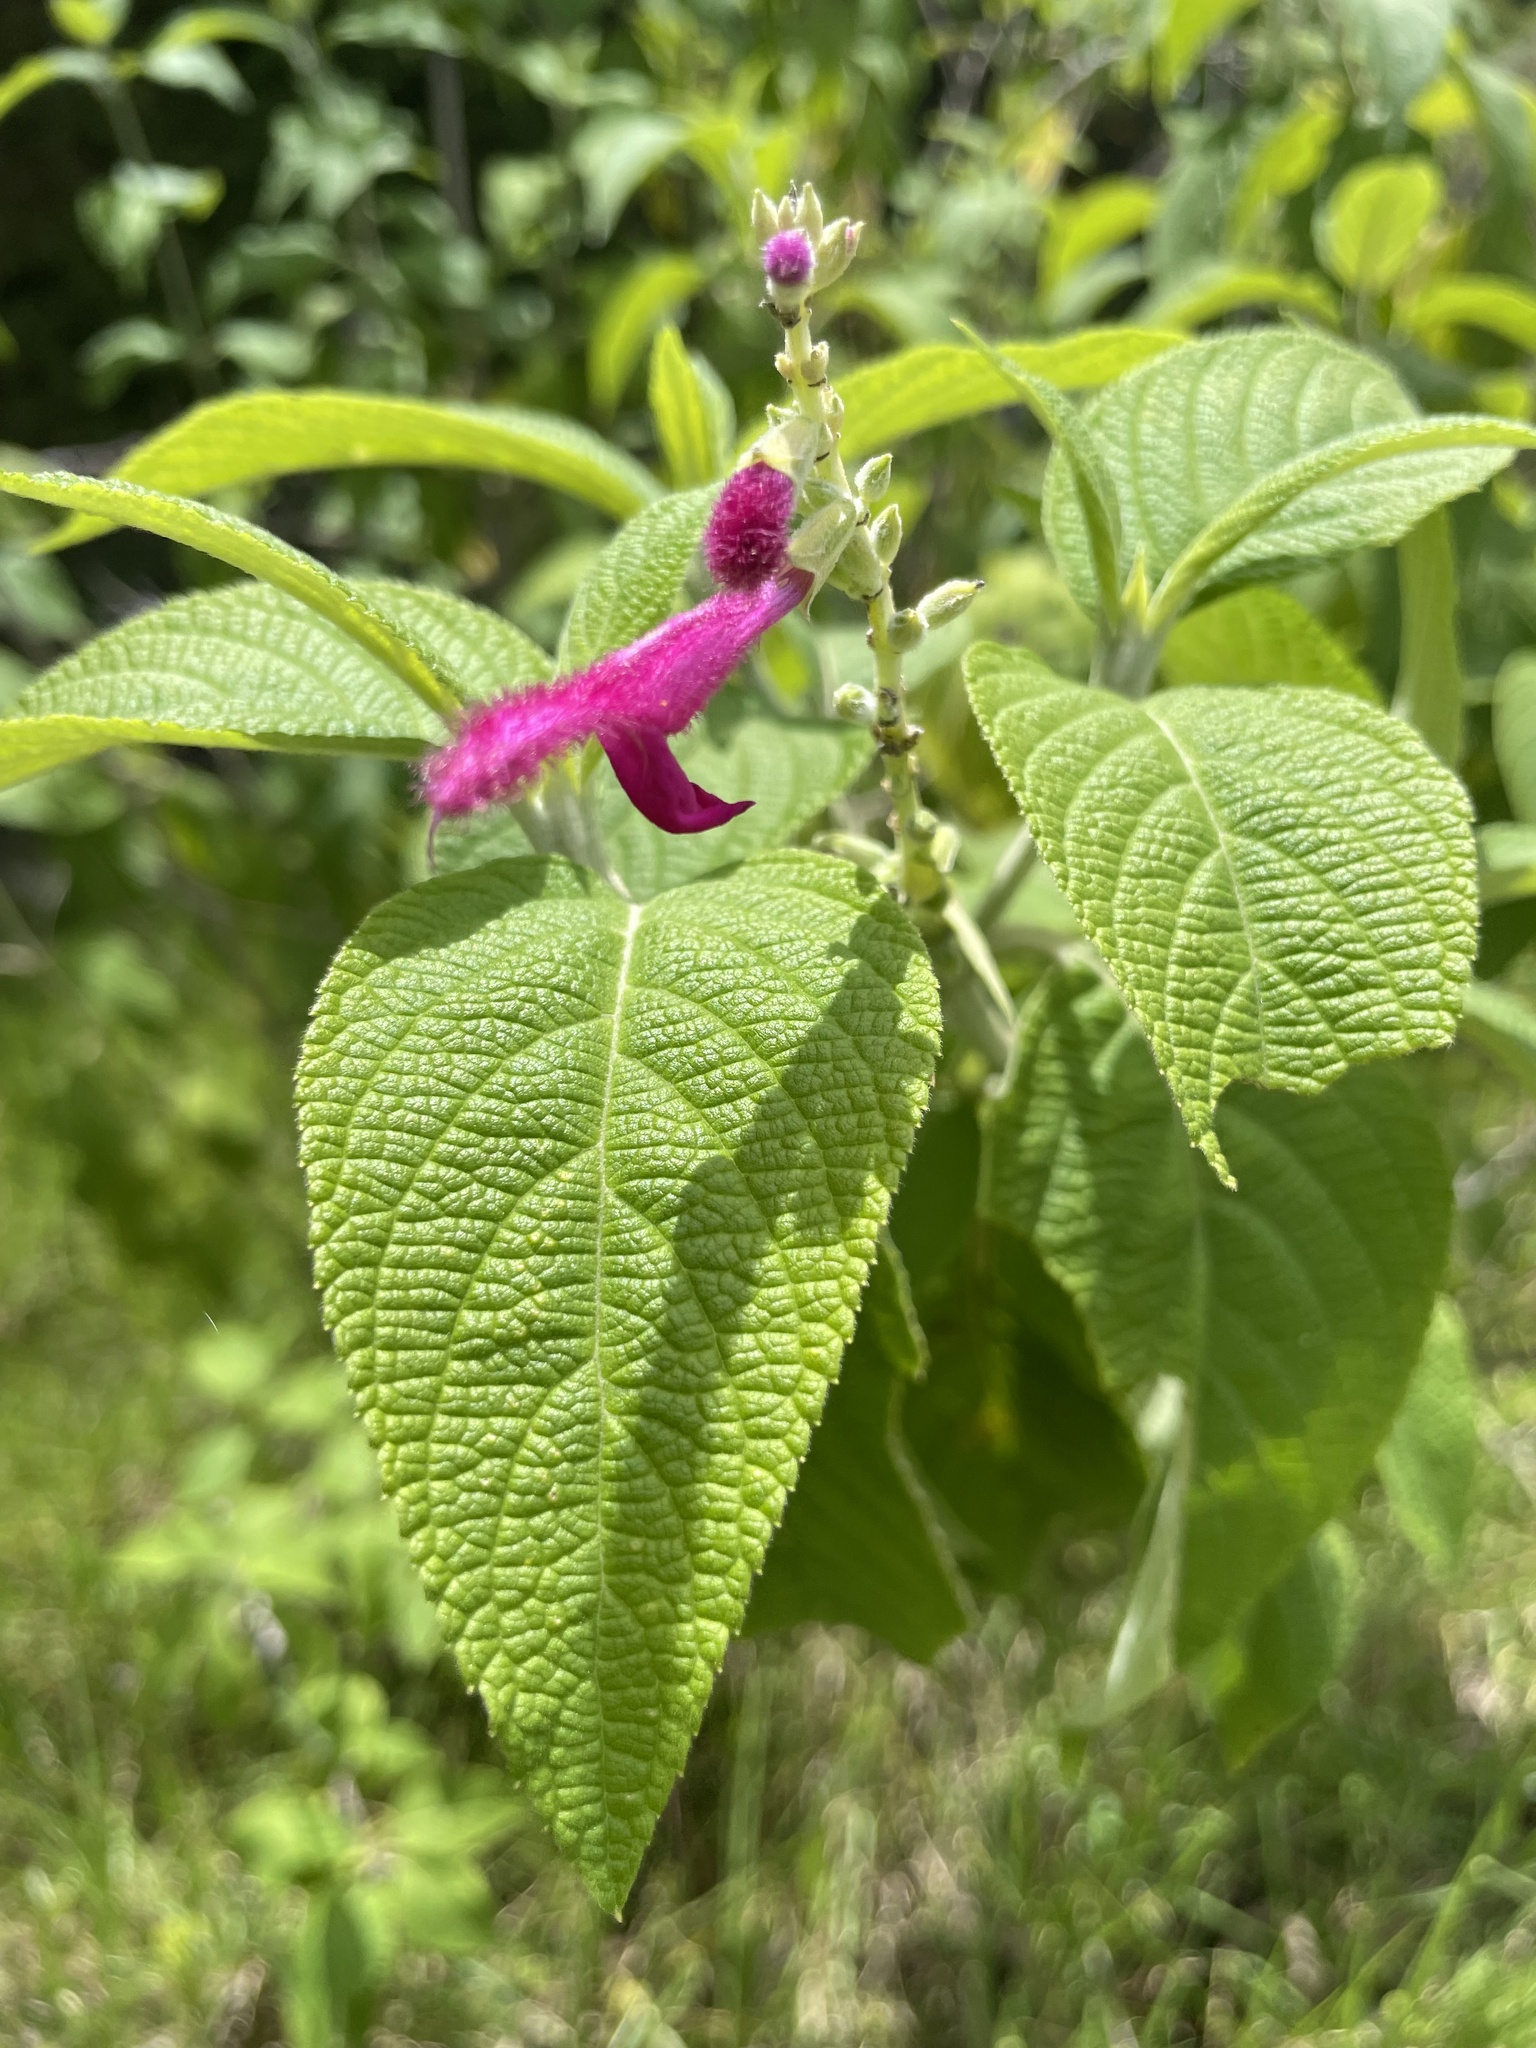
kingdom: Plantae
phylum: Tracheophyta
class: Magnoliopsida
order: Lamiales
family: Lamiaceae
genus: Salvia
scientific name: Salvia tortuosa
